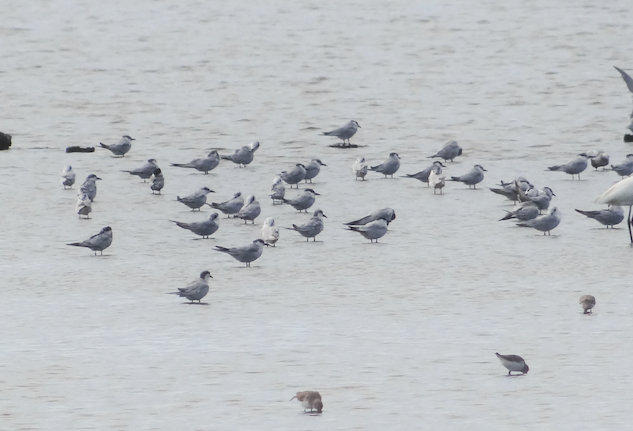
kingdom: Animalia
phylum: Chordata
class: Aves
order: Charadriiformes
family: Laridae
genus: Chlidonias
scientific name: Chlidonias hybrida
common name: Whiskered tern
